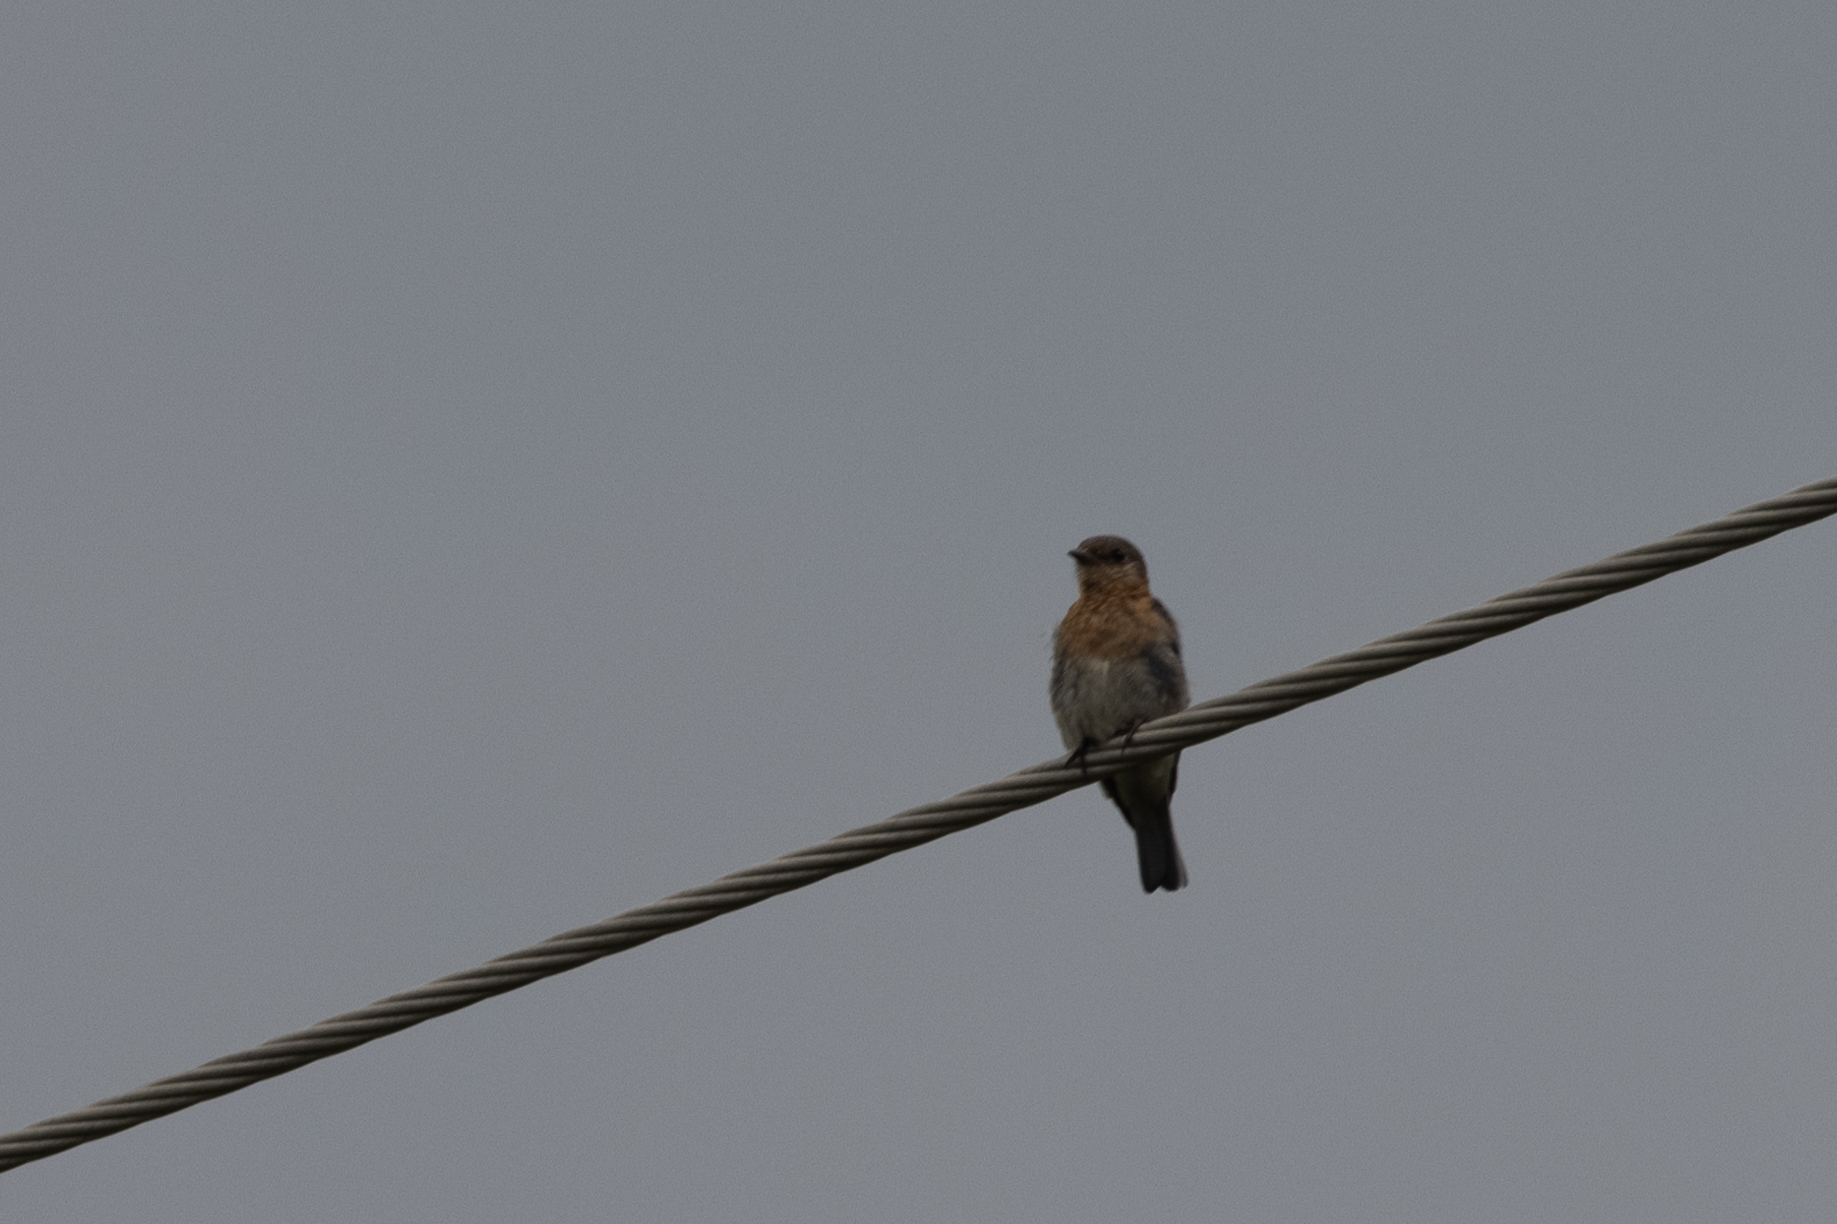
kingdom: Animalia
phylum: Chordata
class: Aves
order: Passeriformes
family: Turdidae
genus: Sialia
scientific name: Sialia sialis
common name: Eastern bluebird
